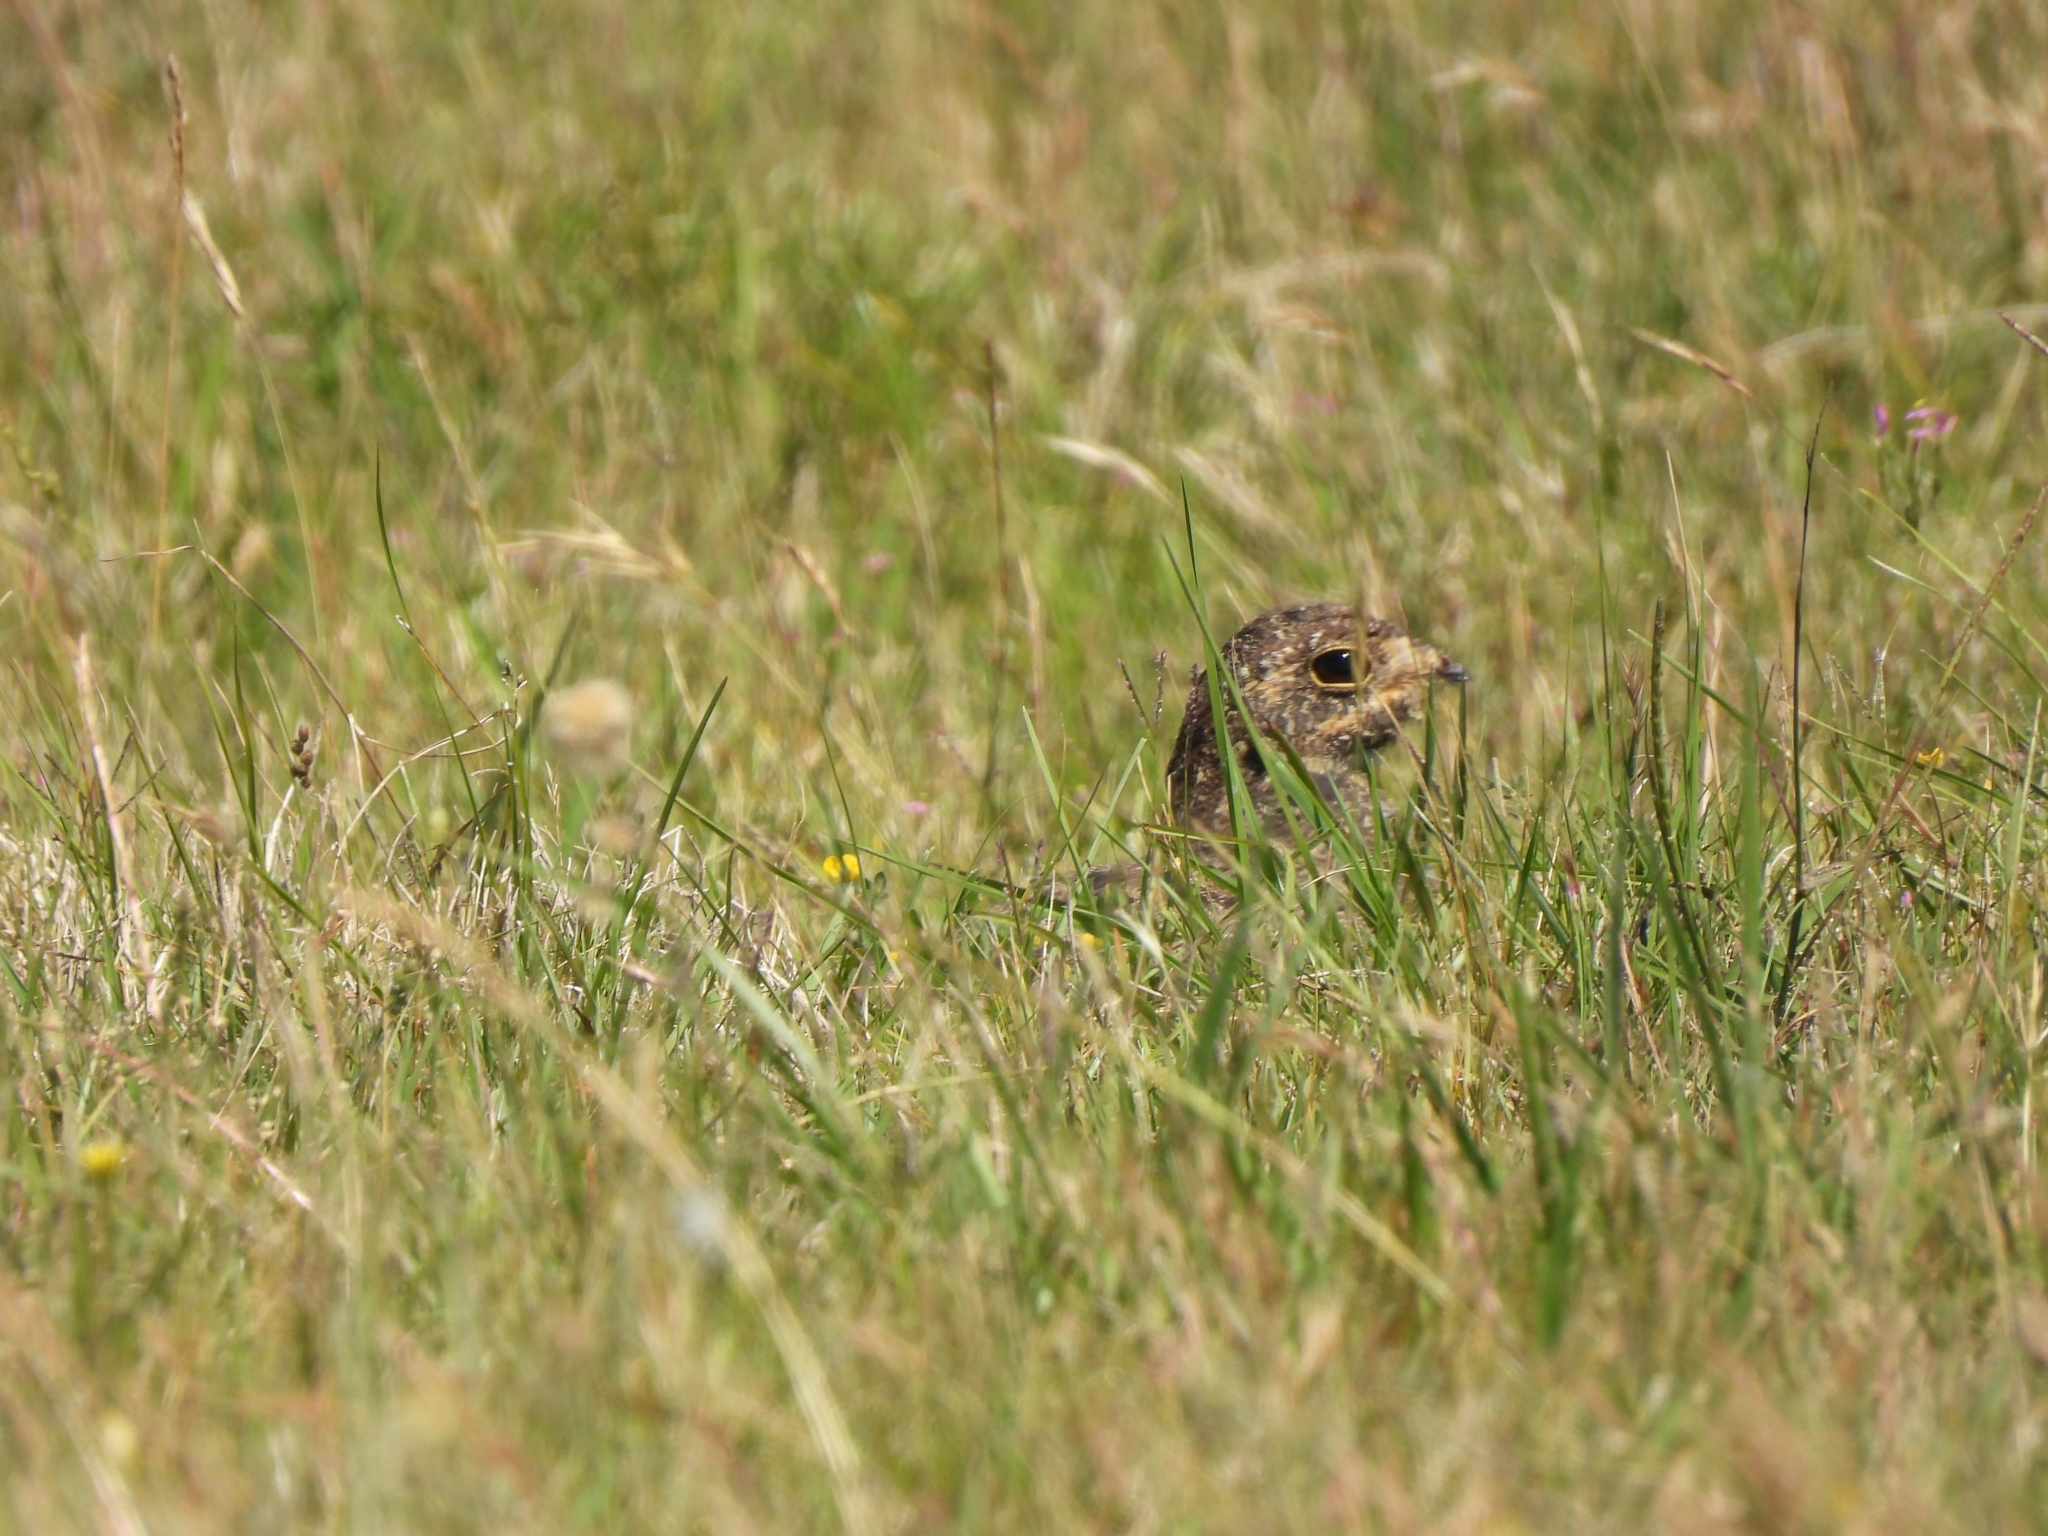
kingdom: Animalia
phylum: Chordata
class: Aves
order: Caprimulgiformes
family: Caprimulgidae
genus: Chordeiles
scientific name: Chordeiles nacunda
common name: Nacunda nighthawk
